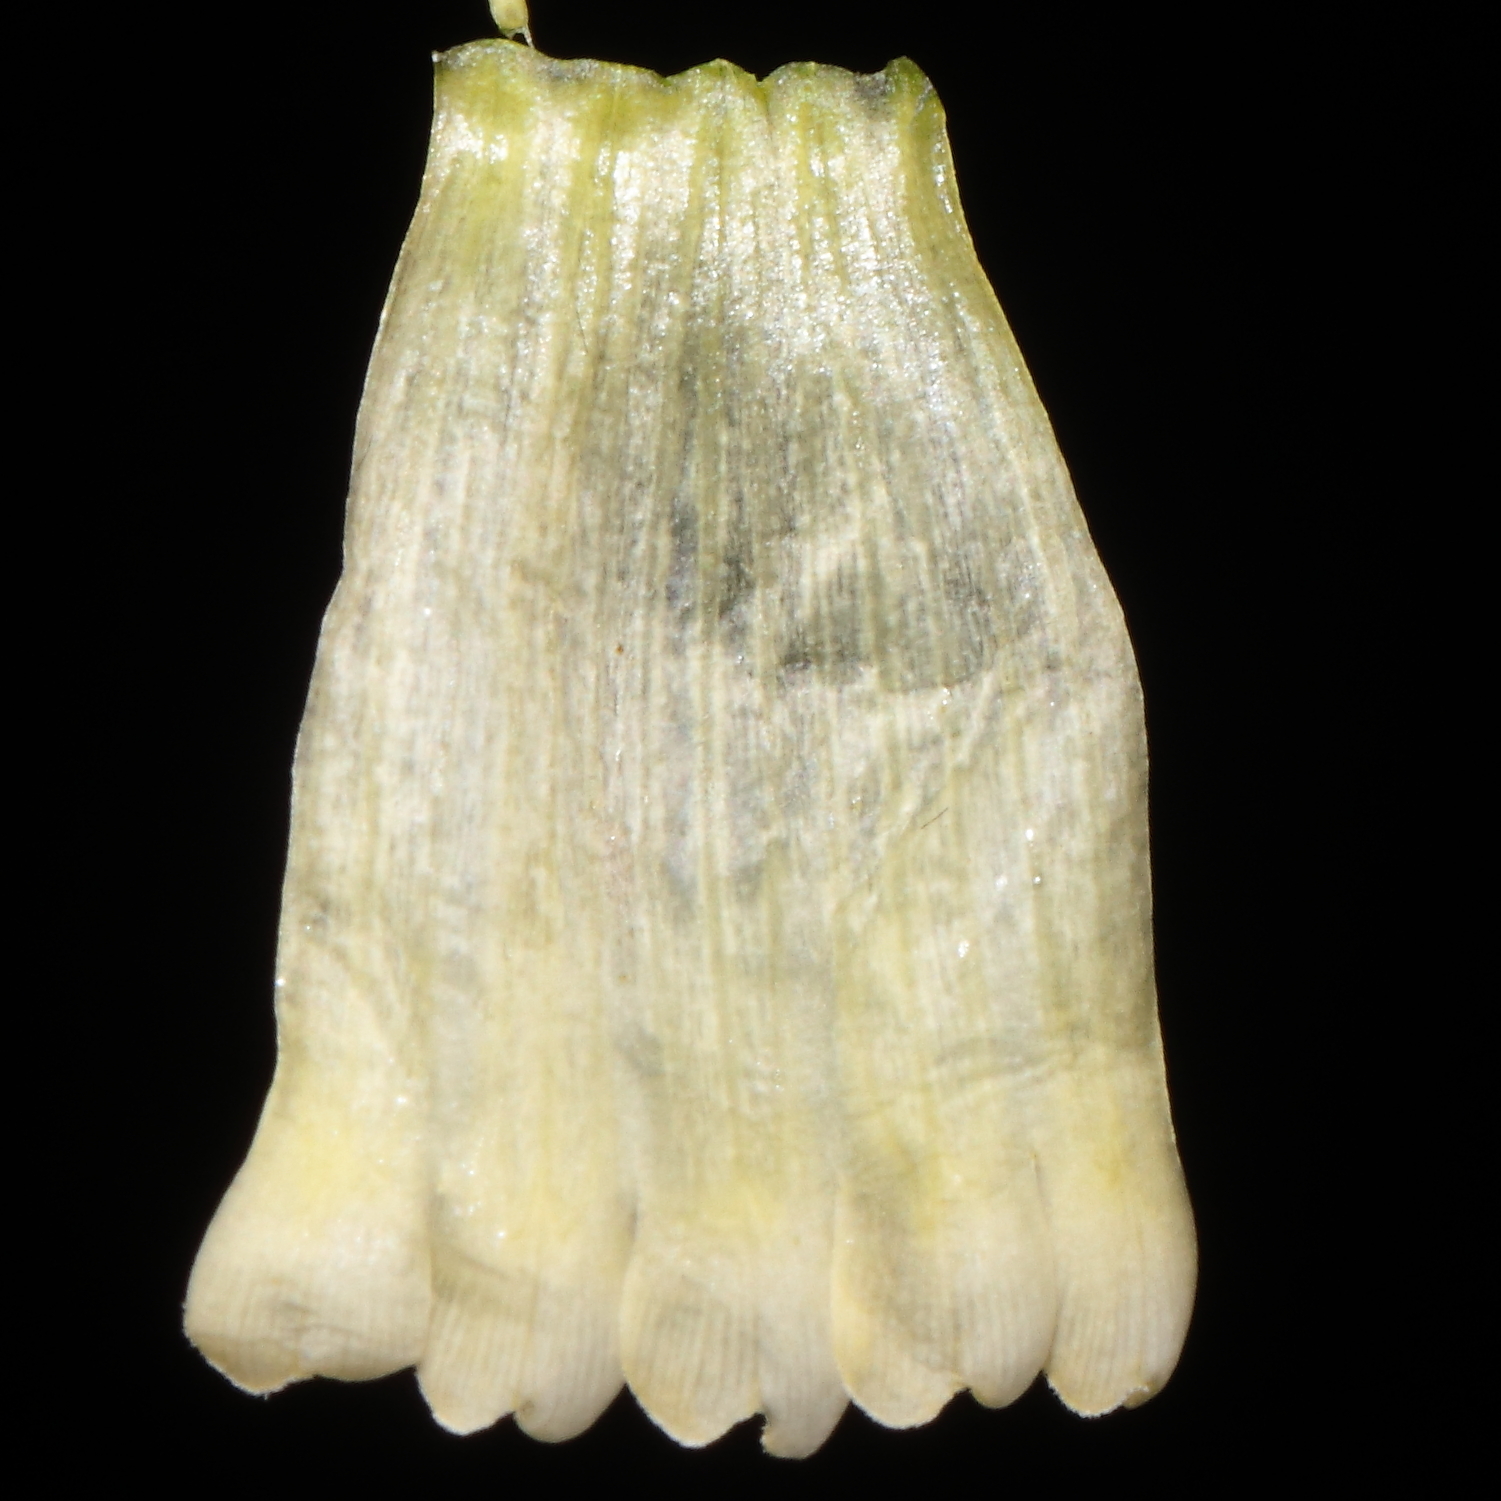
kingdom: Plantae
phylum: Tracheophyta
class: Magnoliopsida
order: Ericales
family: Polemoniaceae
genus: Cantua
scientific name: Cantua flexuosa
